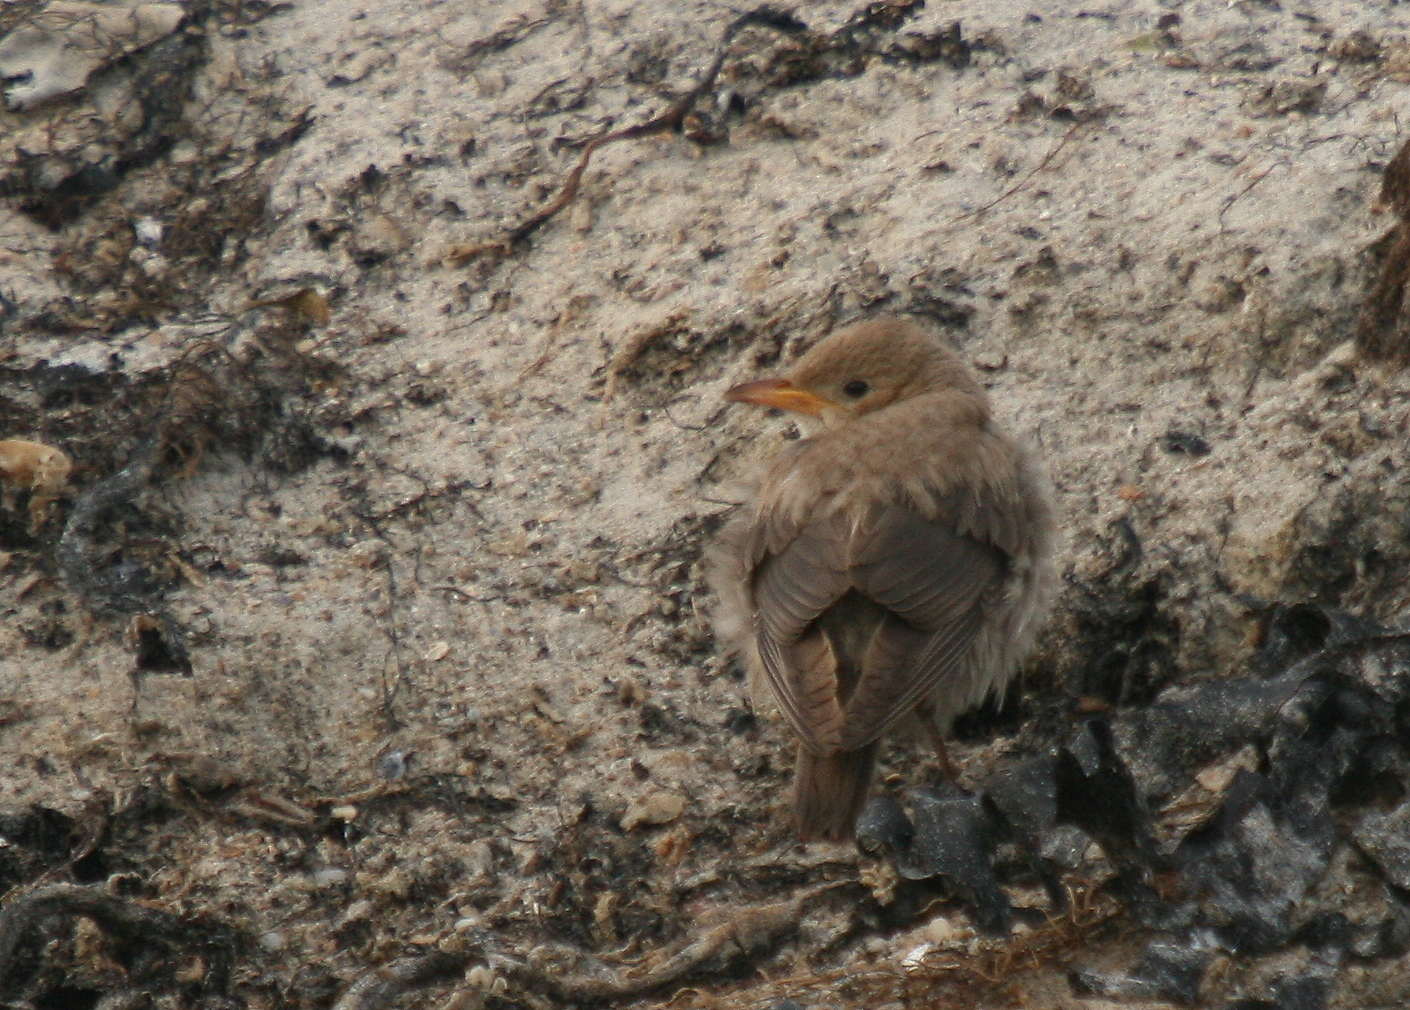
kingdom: Animalia
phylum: Chordata
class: Aves
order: Passeriformes
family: Sturnidae
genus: Pastor
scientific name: Pastor roseus
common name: Rosy starling
